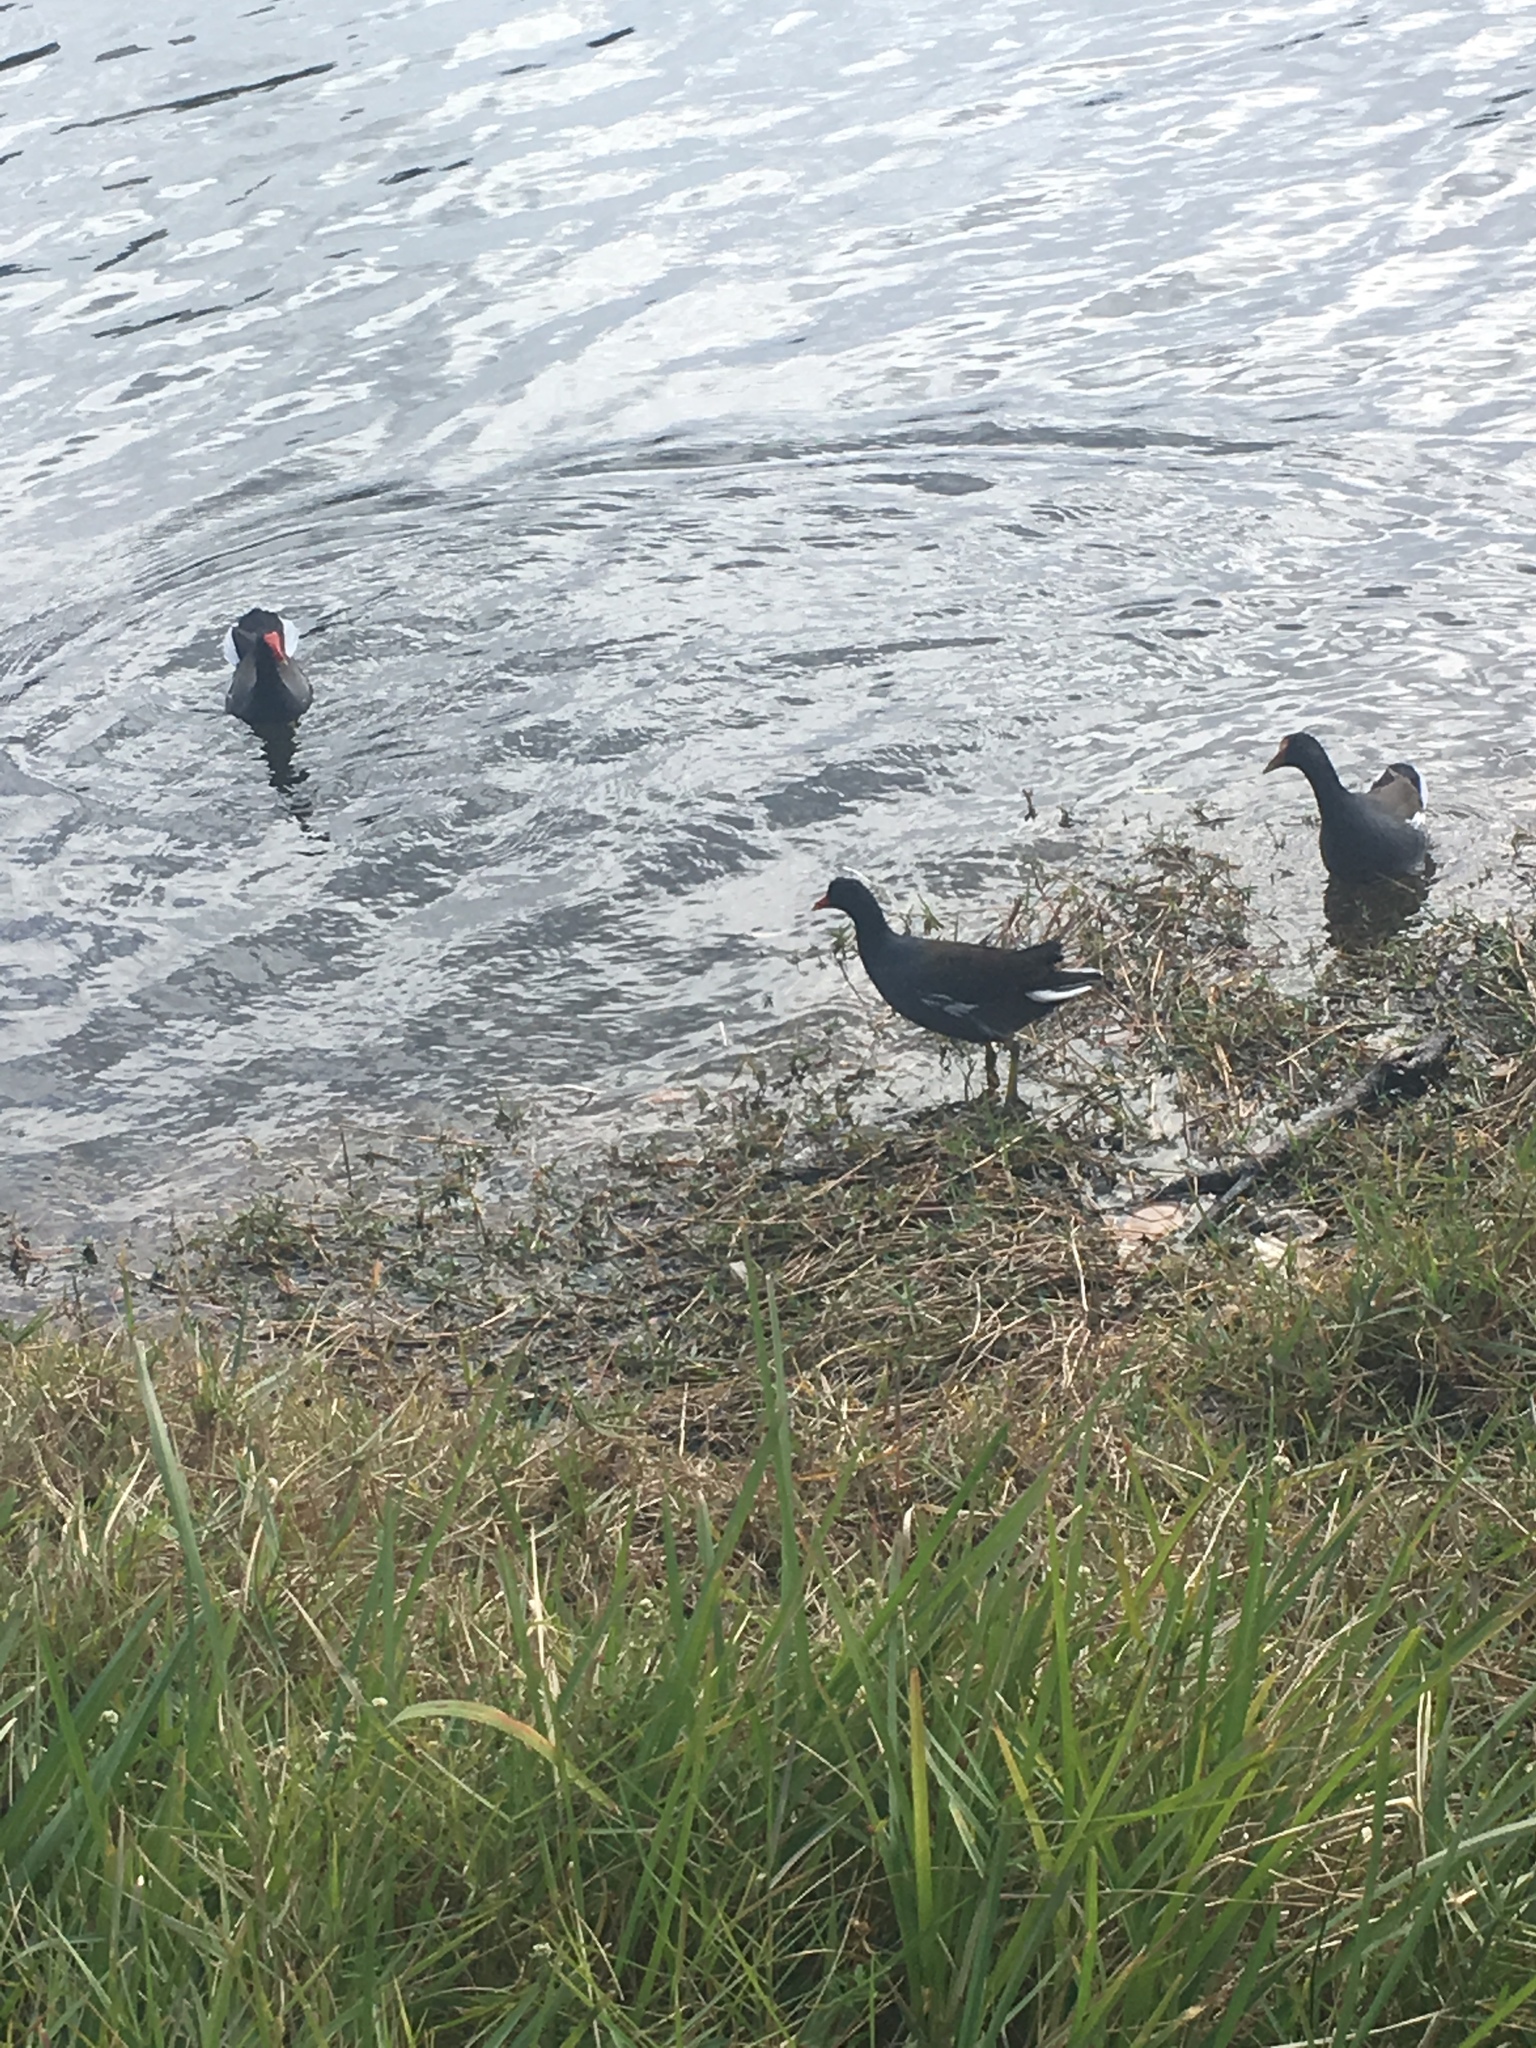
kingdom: Animalia
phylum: Chordata
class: Aves
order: Gruiformes
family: Rallidae
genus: Gallinula
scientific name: Gallinula chloropus
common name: Common moorhen
